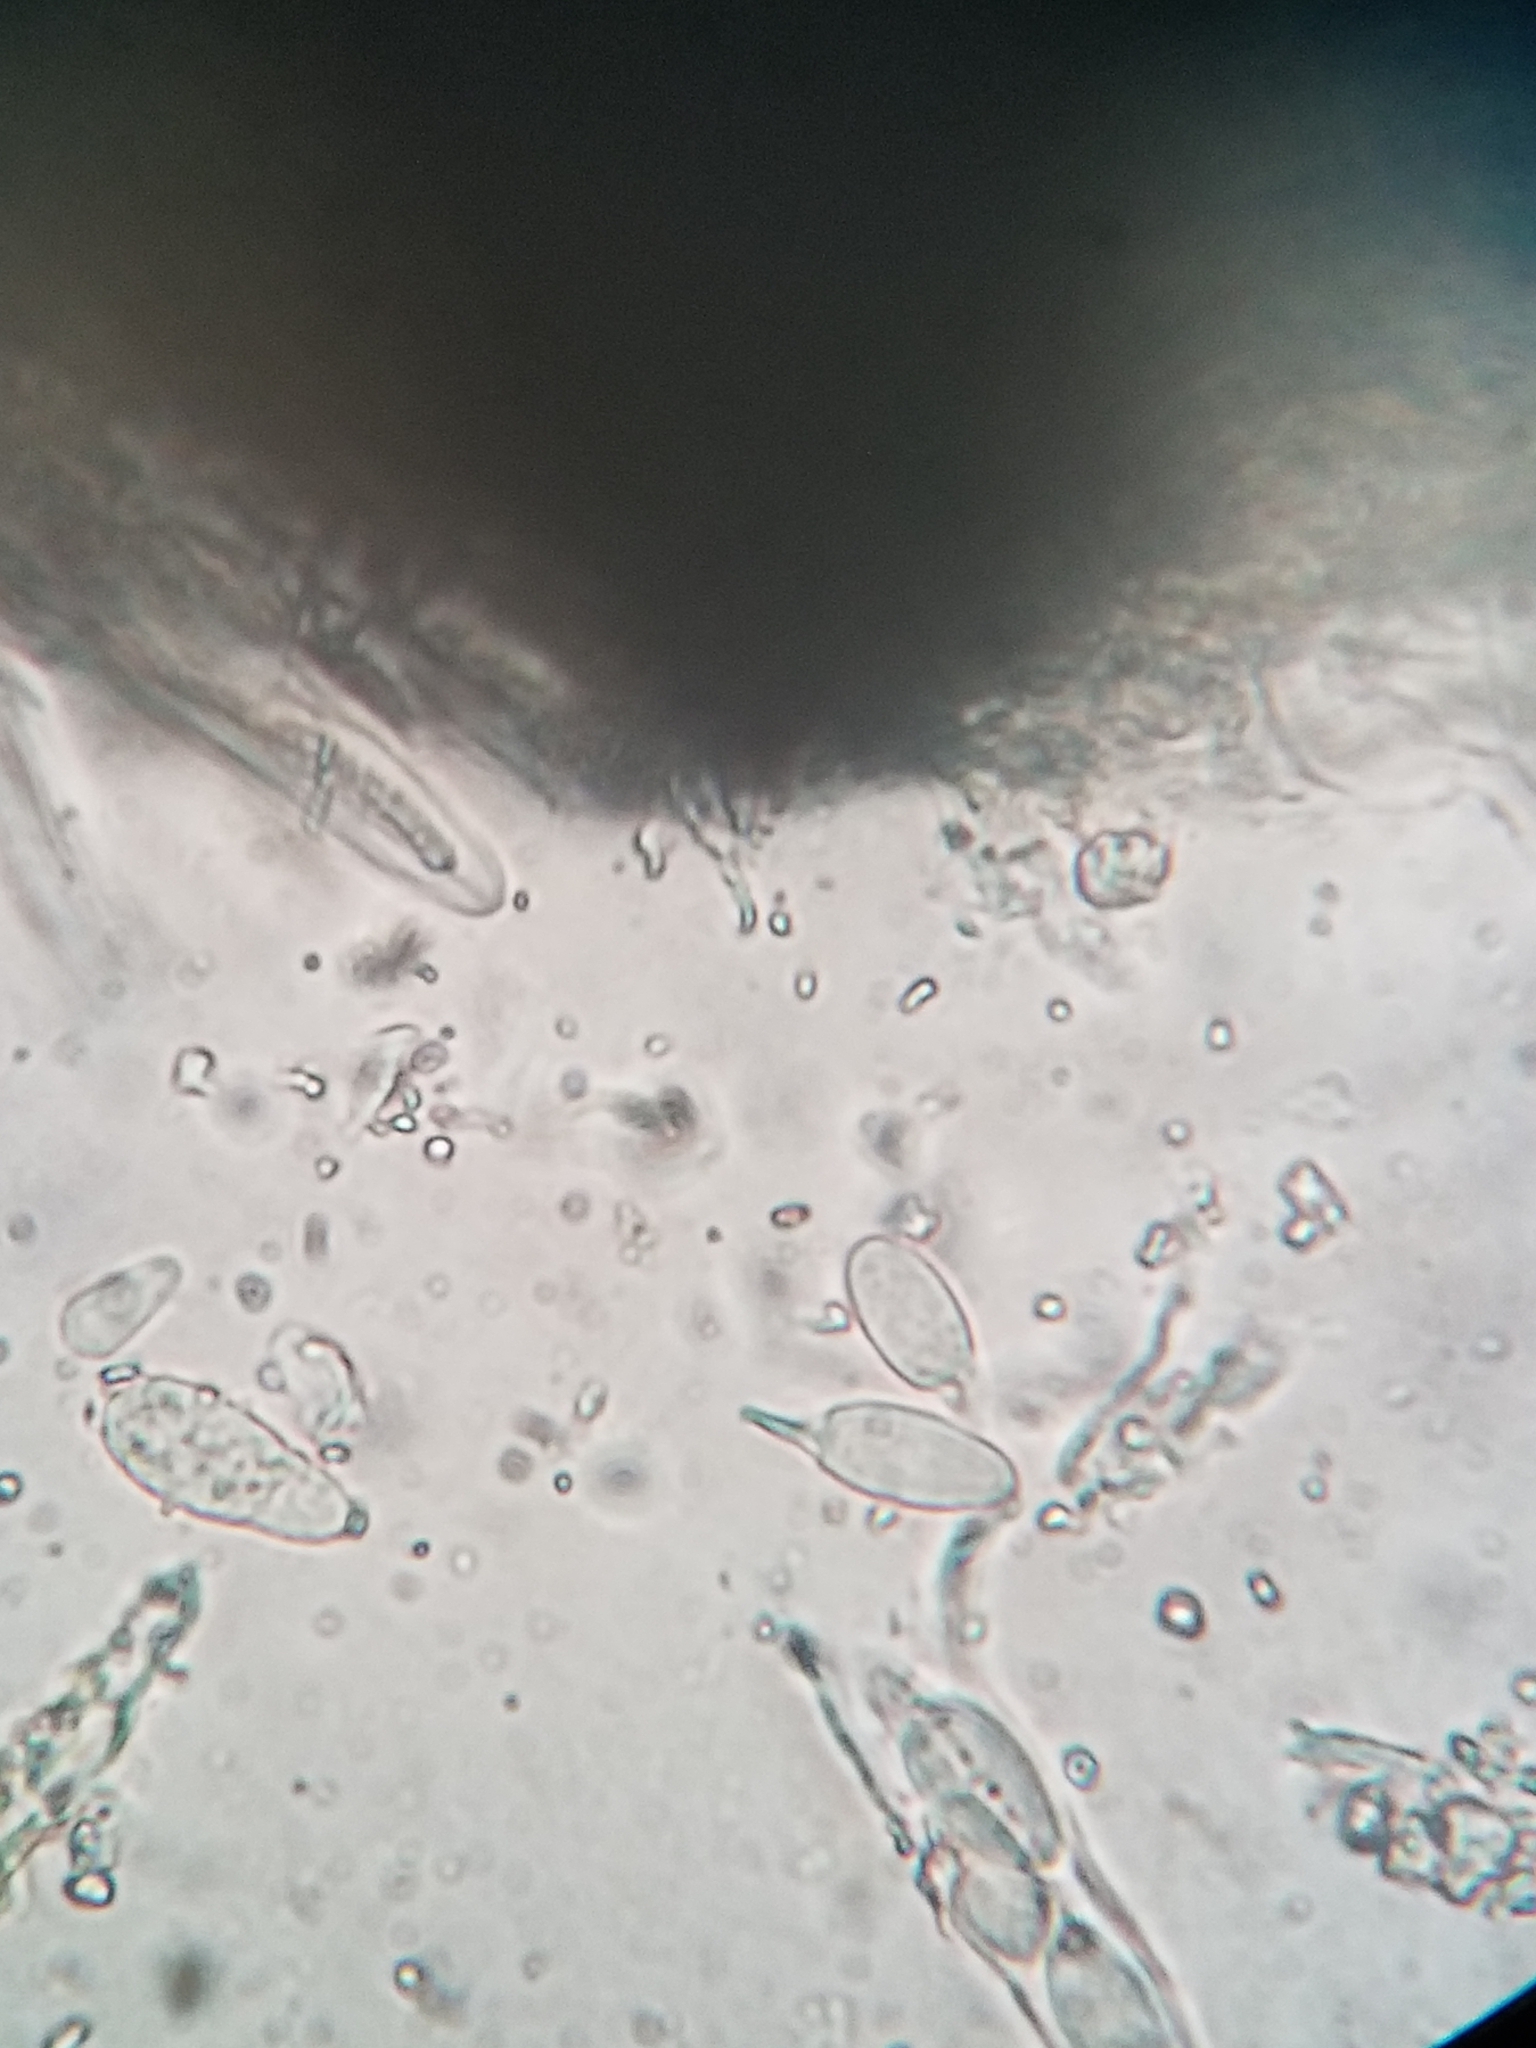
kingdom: Fungi
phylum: Ascomycota
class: Sordariomycetes
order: Xylariales
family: Apiosporaceae
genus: Apiosporella
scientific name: Apiosporella caudata
